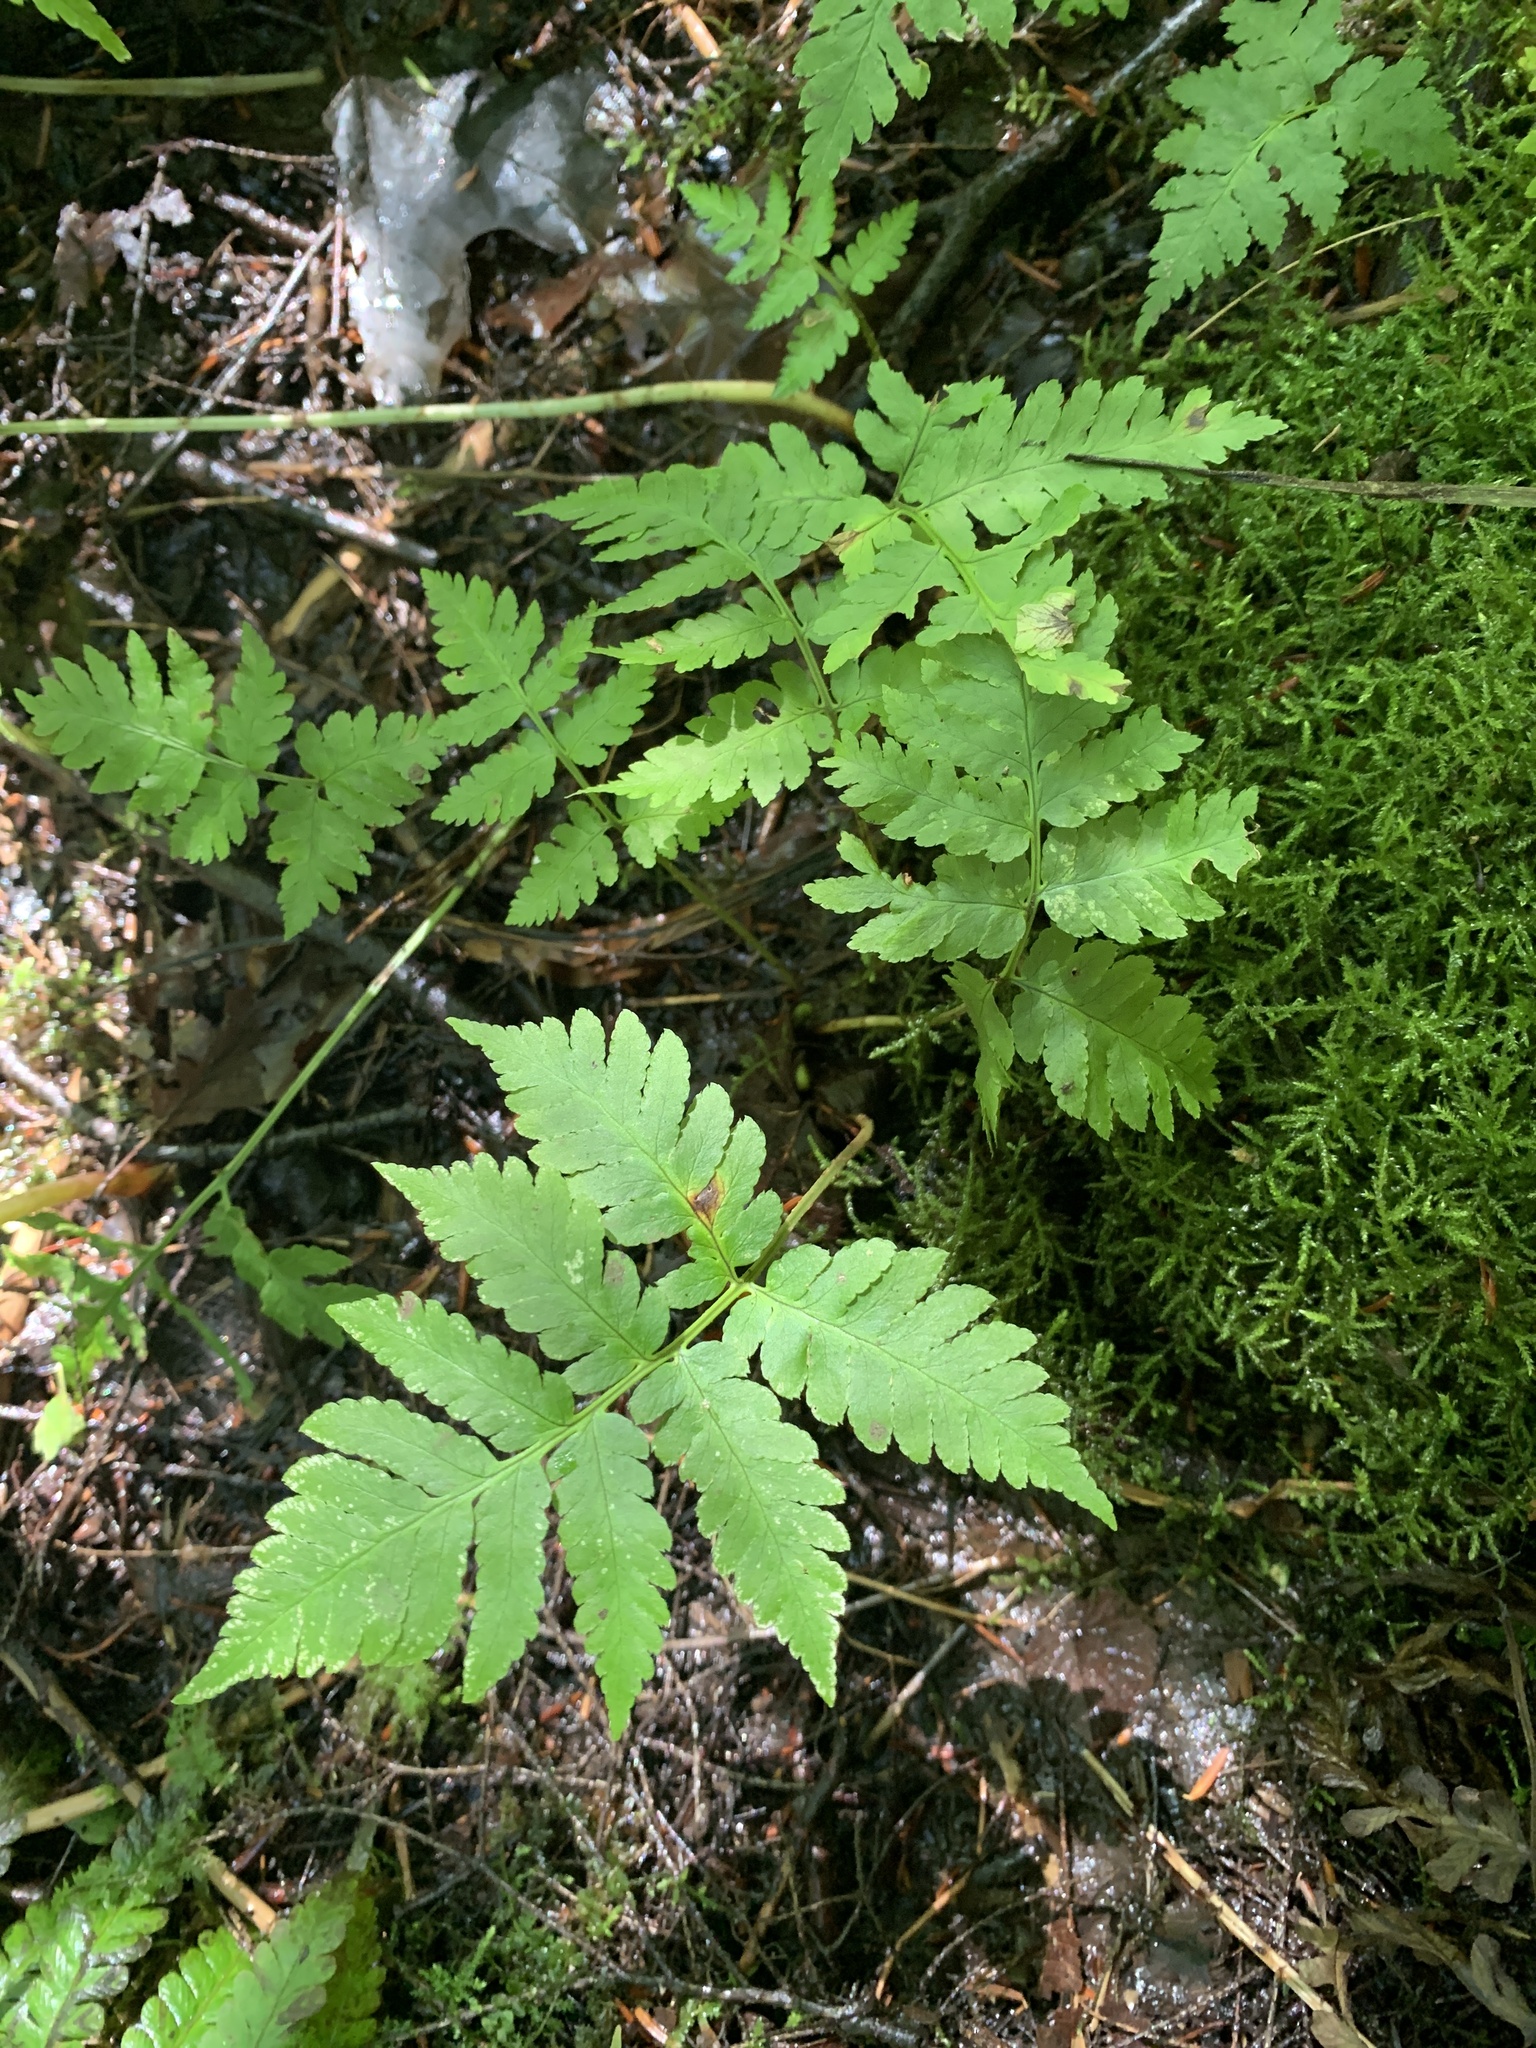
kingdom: Plantae
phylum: Tracheophyta
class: Polypodiopsida
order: Polypodiales
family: Dryopteridaceae
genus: Dryopteris
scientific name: Dryopteris goldieana
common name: Goldie's fern
